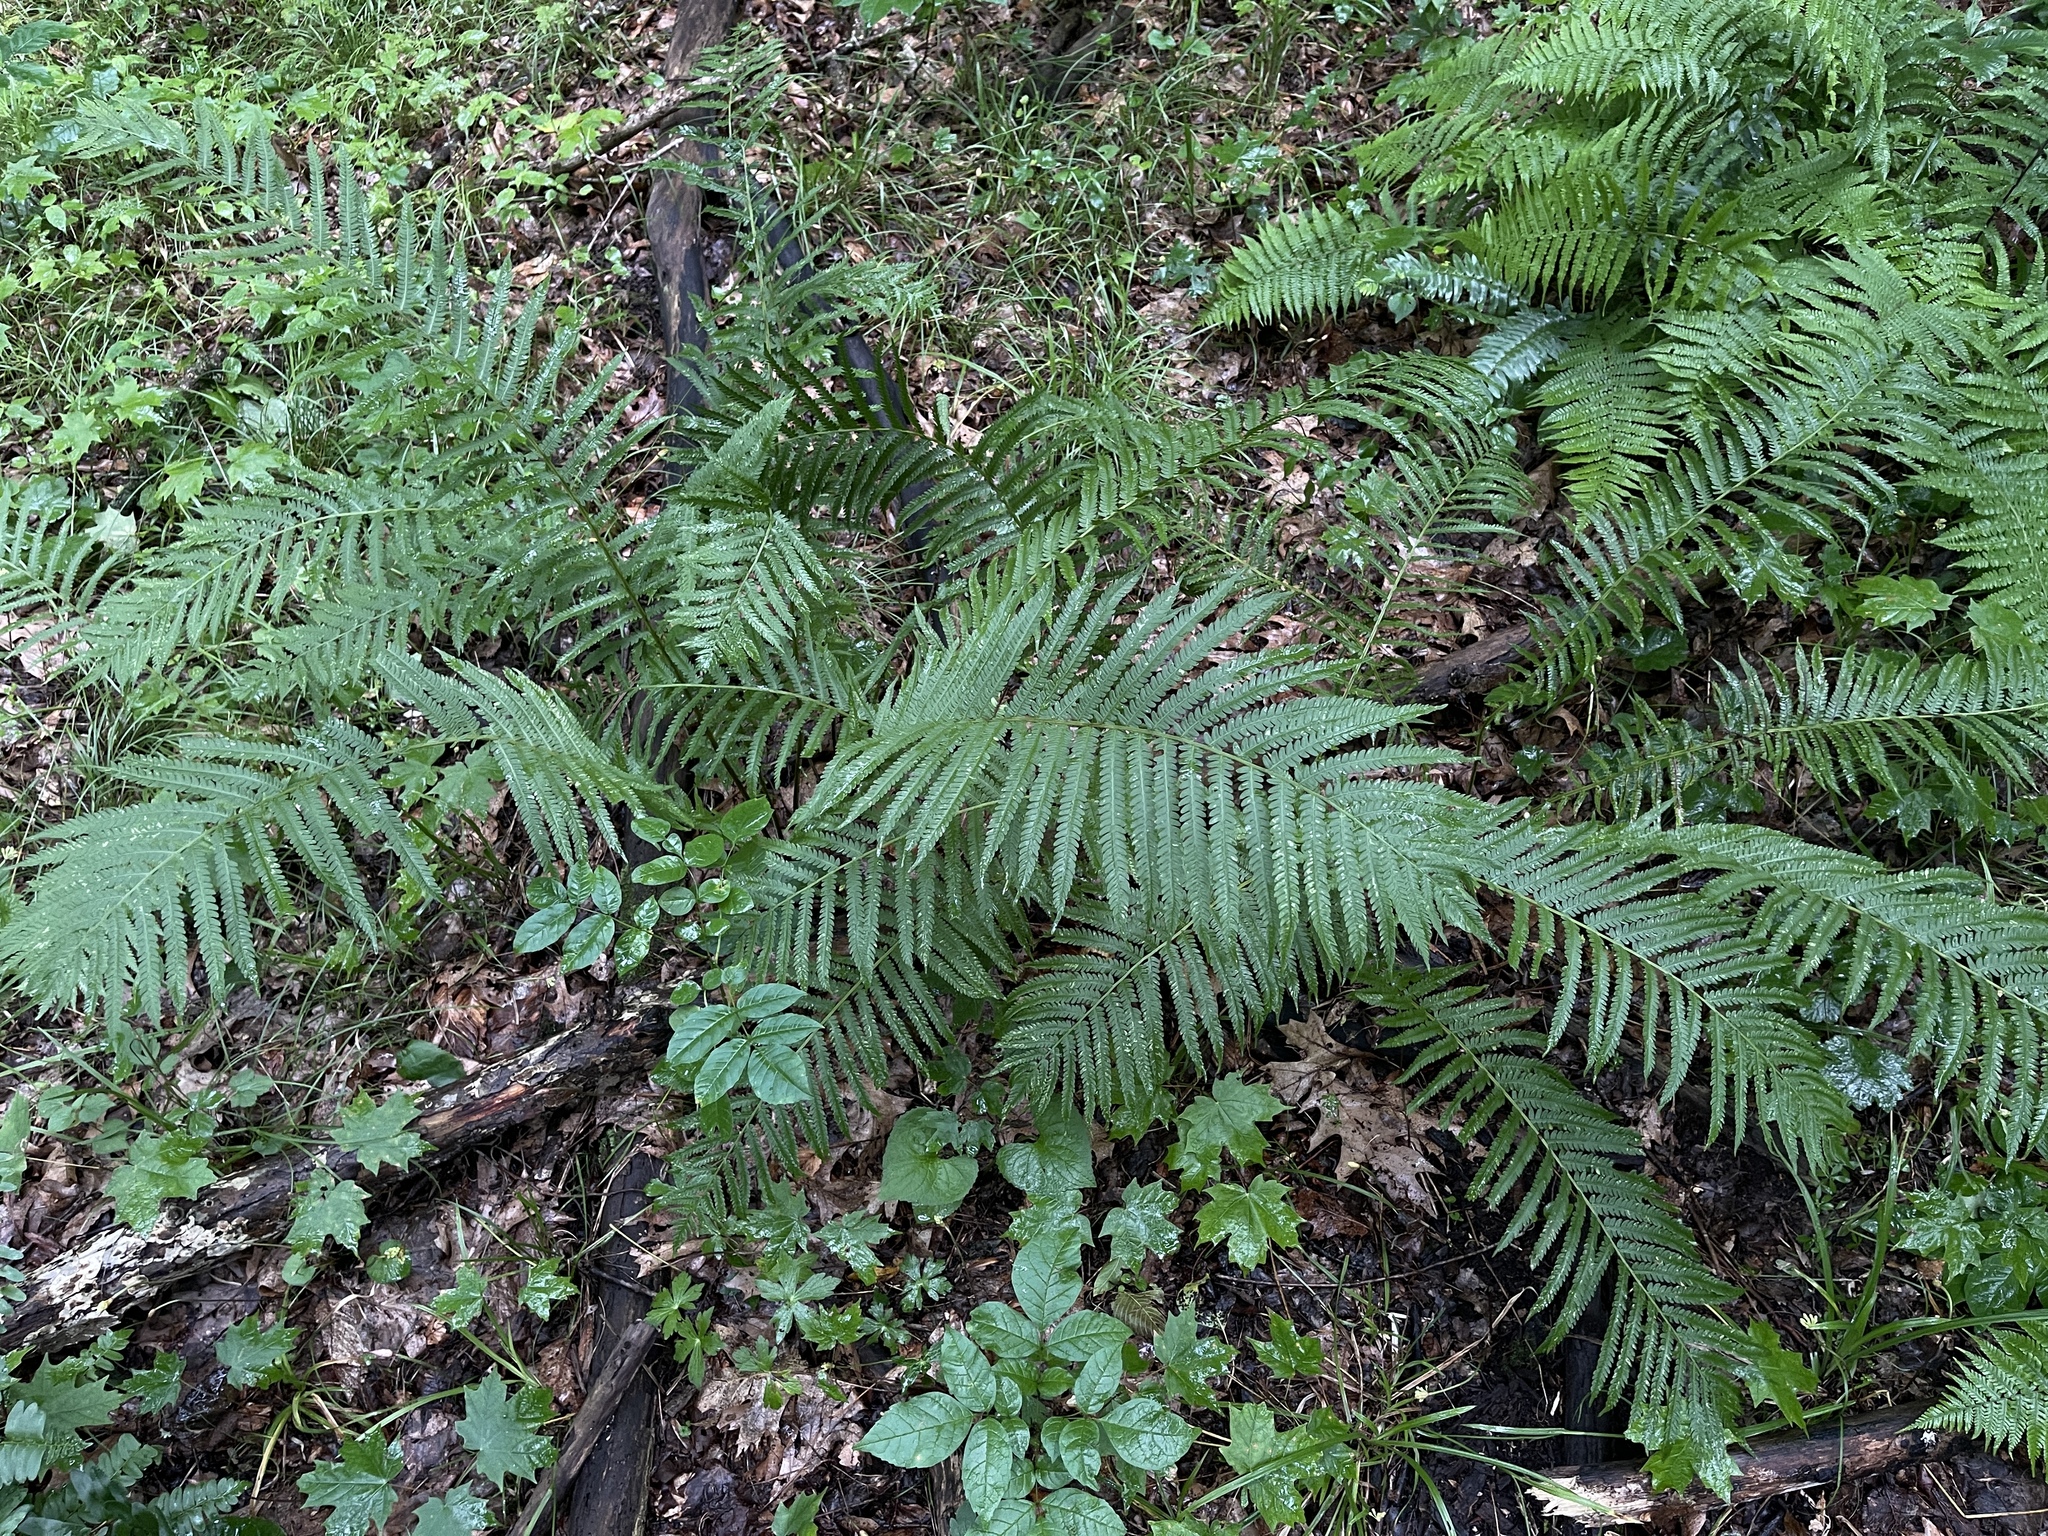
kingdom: Plantae
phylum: Tracheophyta
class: Polypodiopsida
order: Polypodiales
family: Onocleaceae
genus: Matteuccia
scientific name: Matteuccia struthiopteris
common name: Ostrich fern
